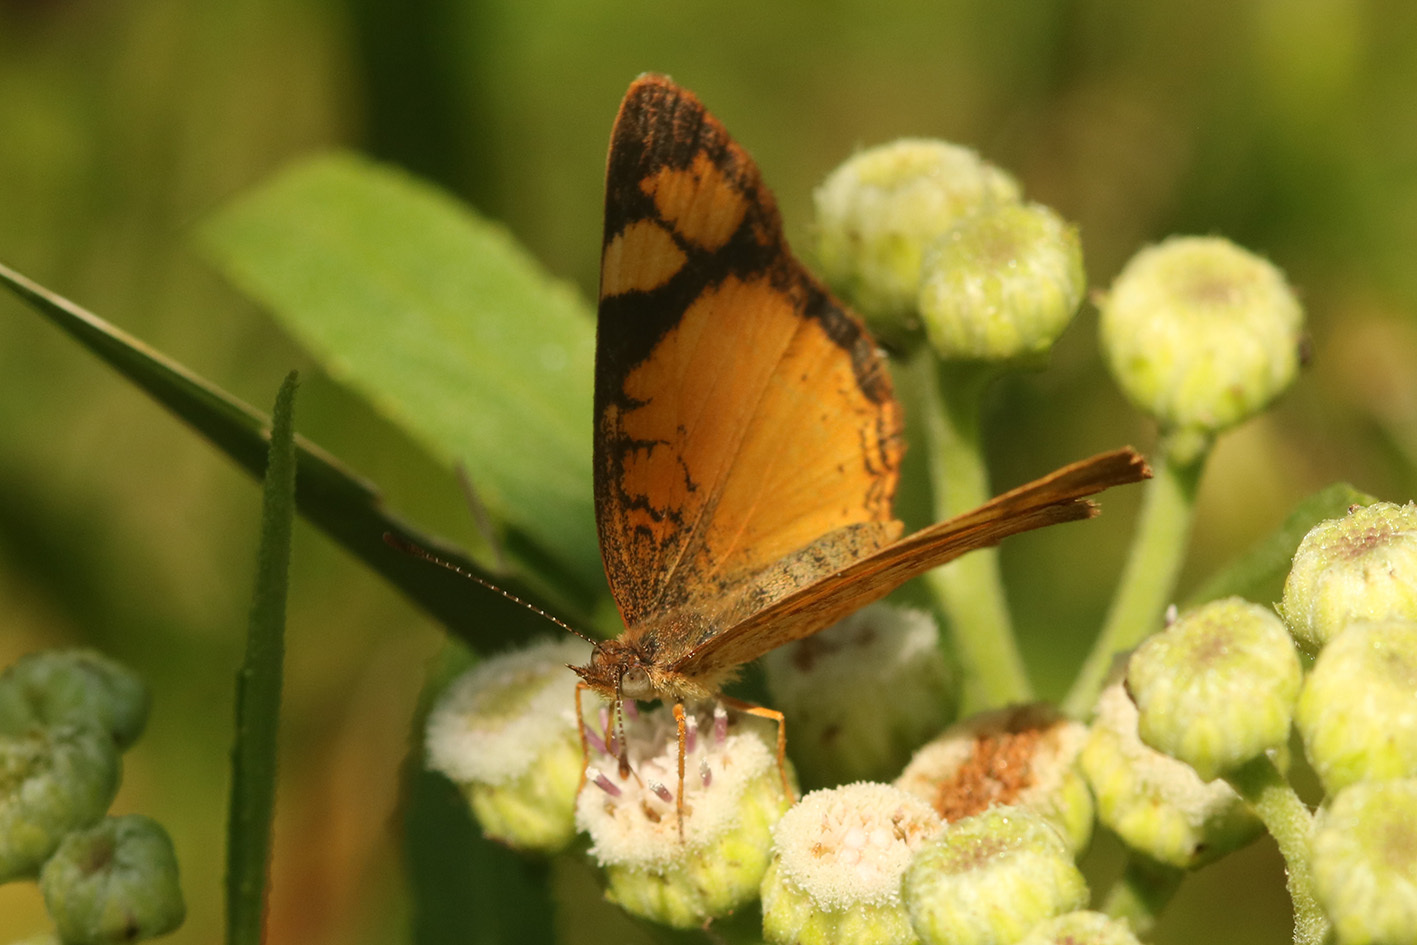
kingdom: Animalia
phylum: Arthropoda
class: Insecta
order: Lepidoptera
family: Nymphalidae
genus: Tegosa
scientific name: Tegosa claudina
